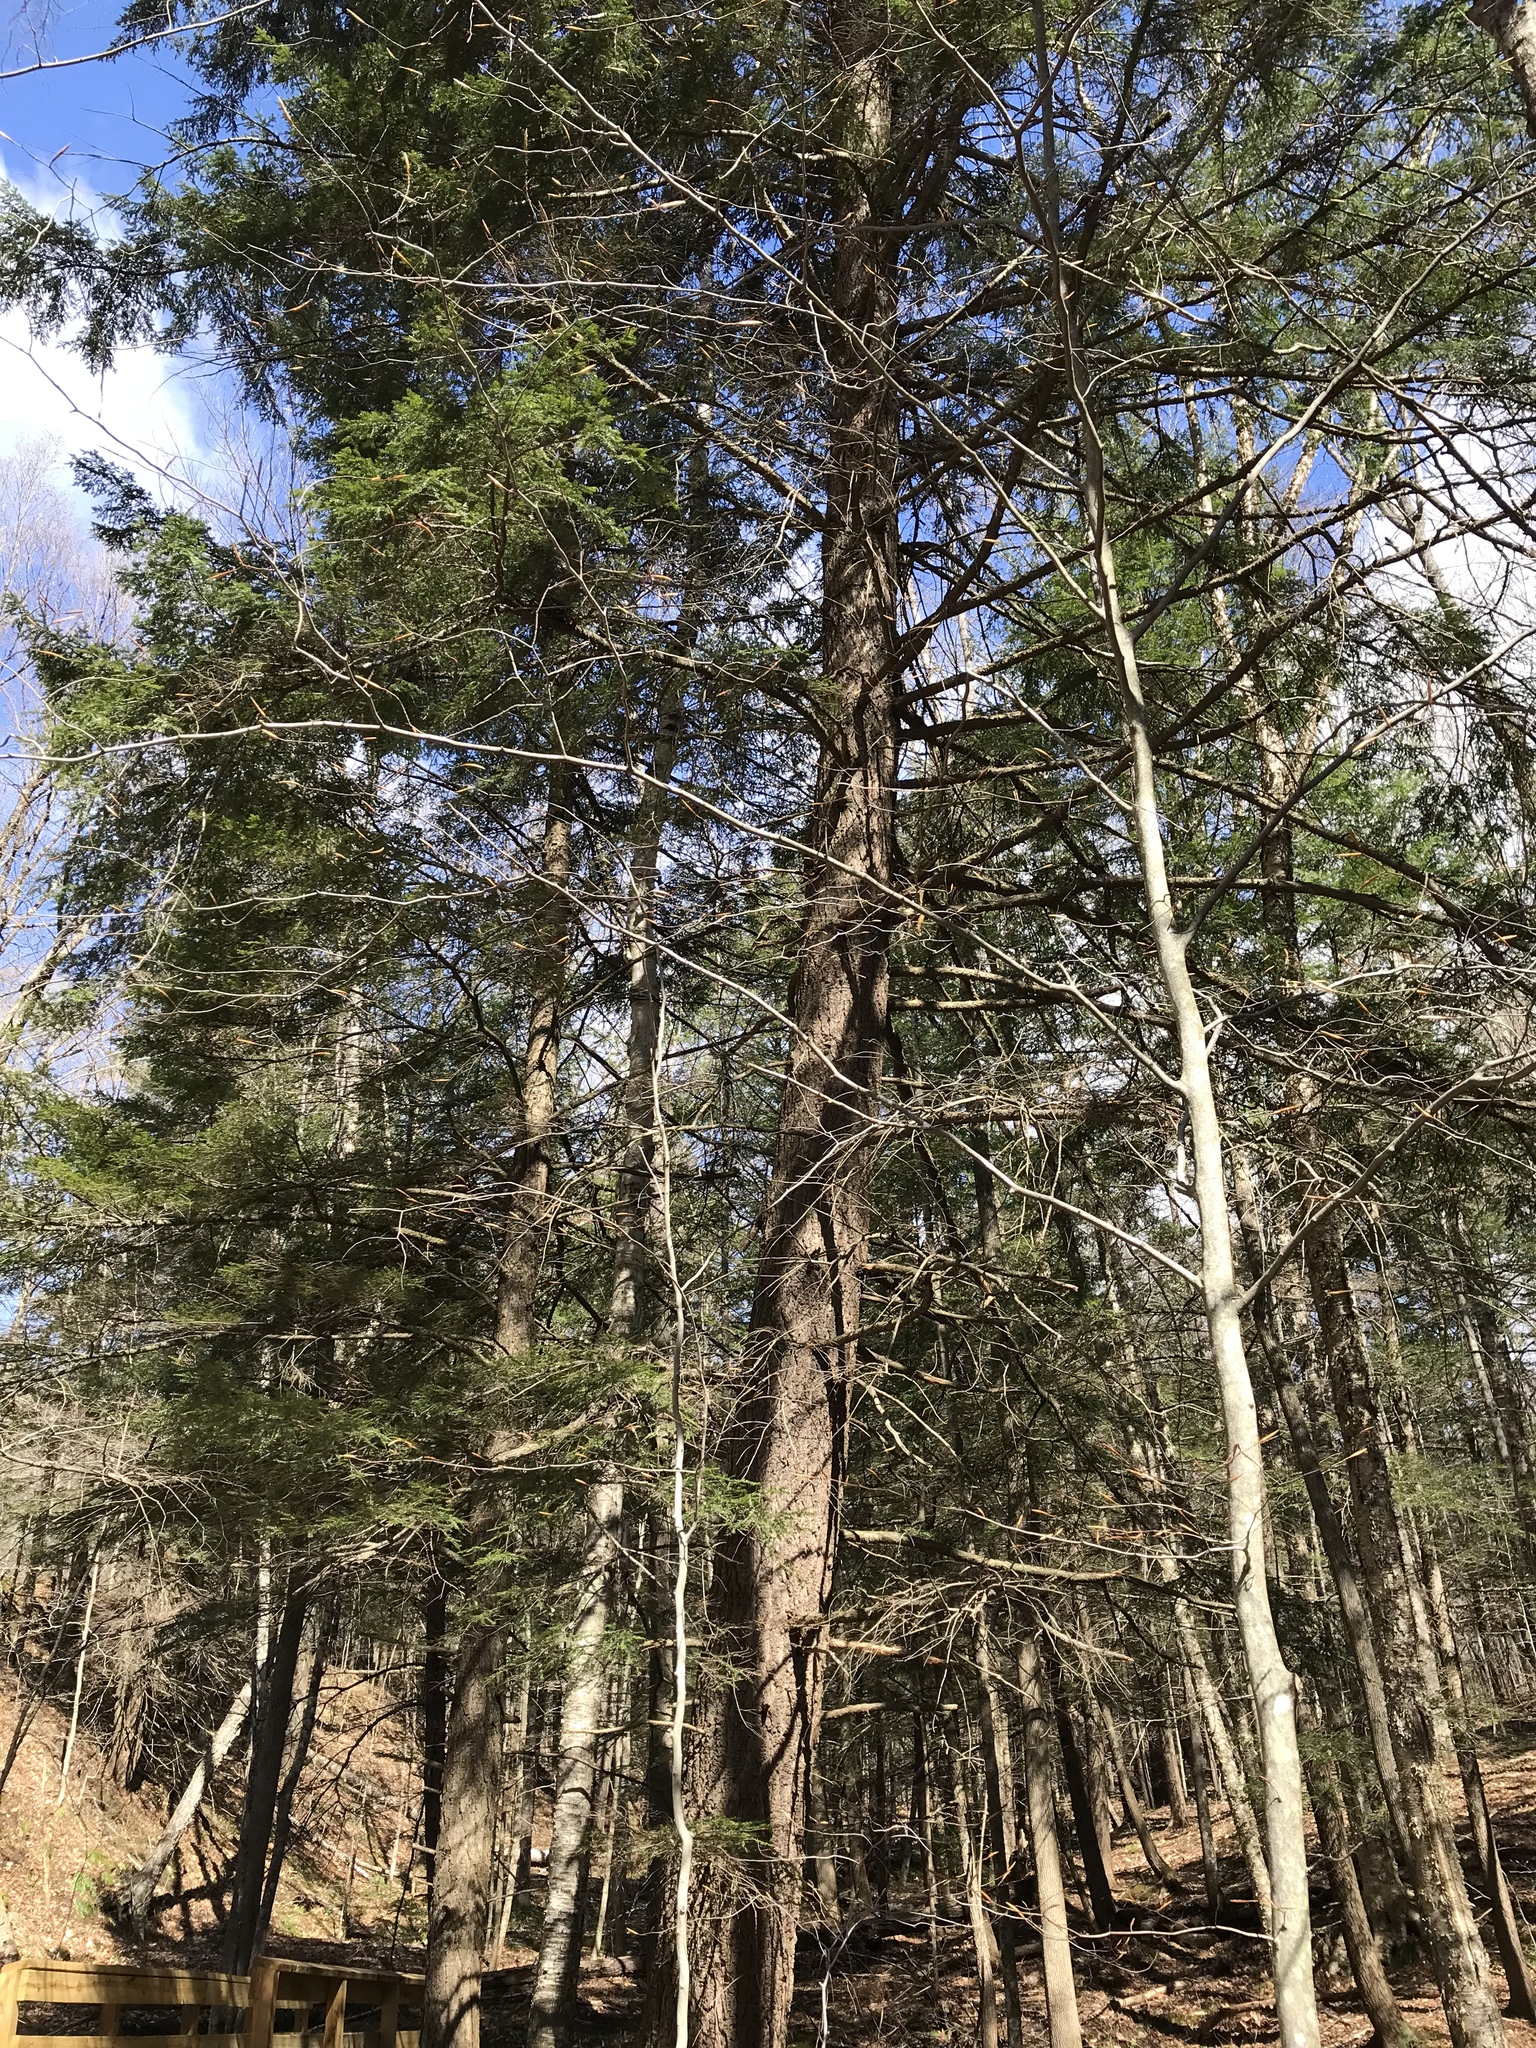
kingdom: Plantae
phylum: Tracheophyta
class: Pinopsida
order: Pinales
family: Pinaceae
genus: Tsuga
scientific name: Tsuga canadensis
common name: Eastern hemlock
